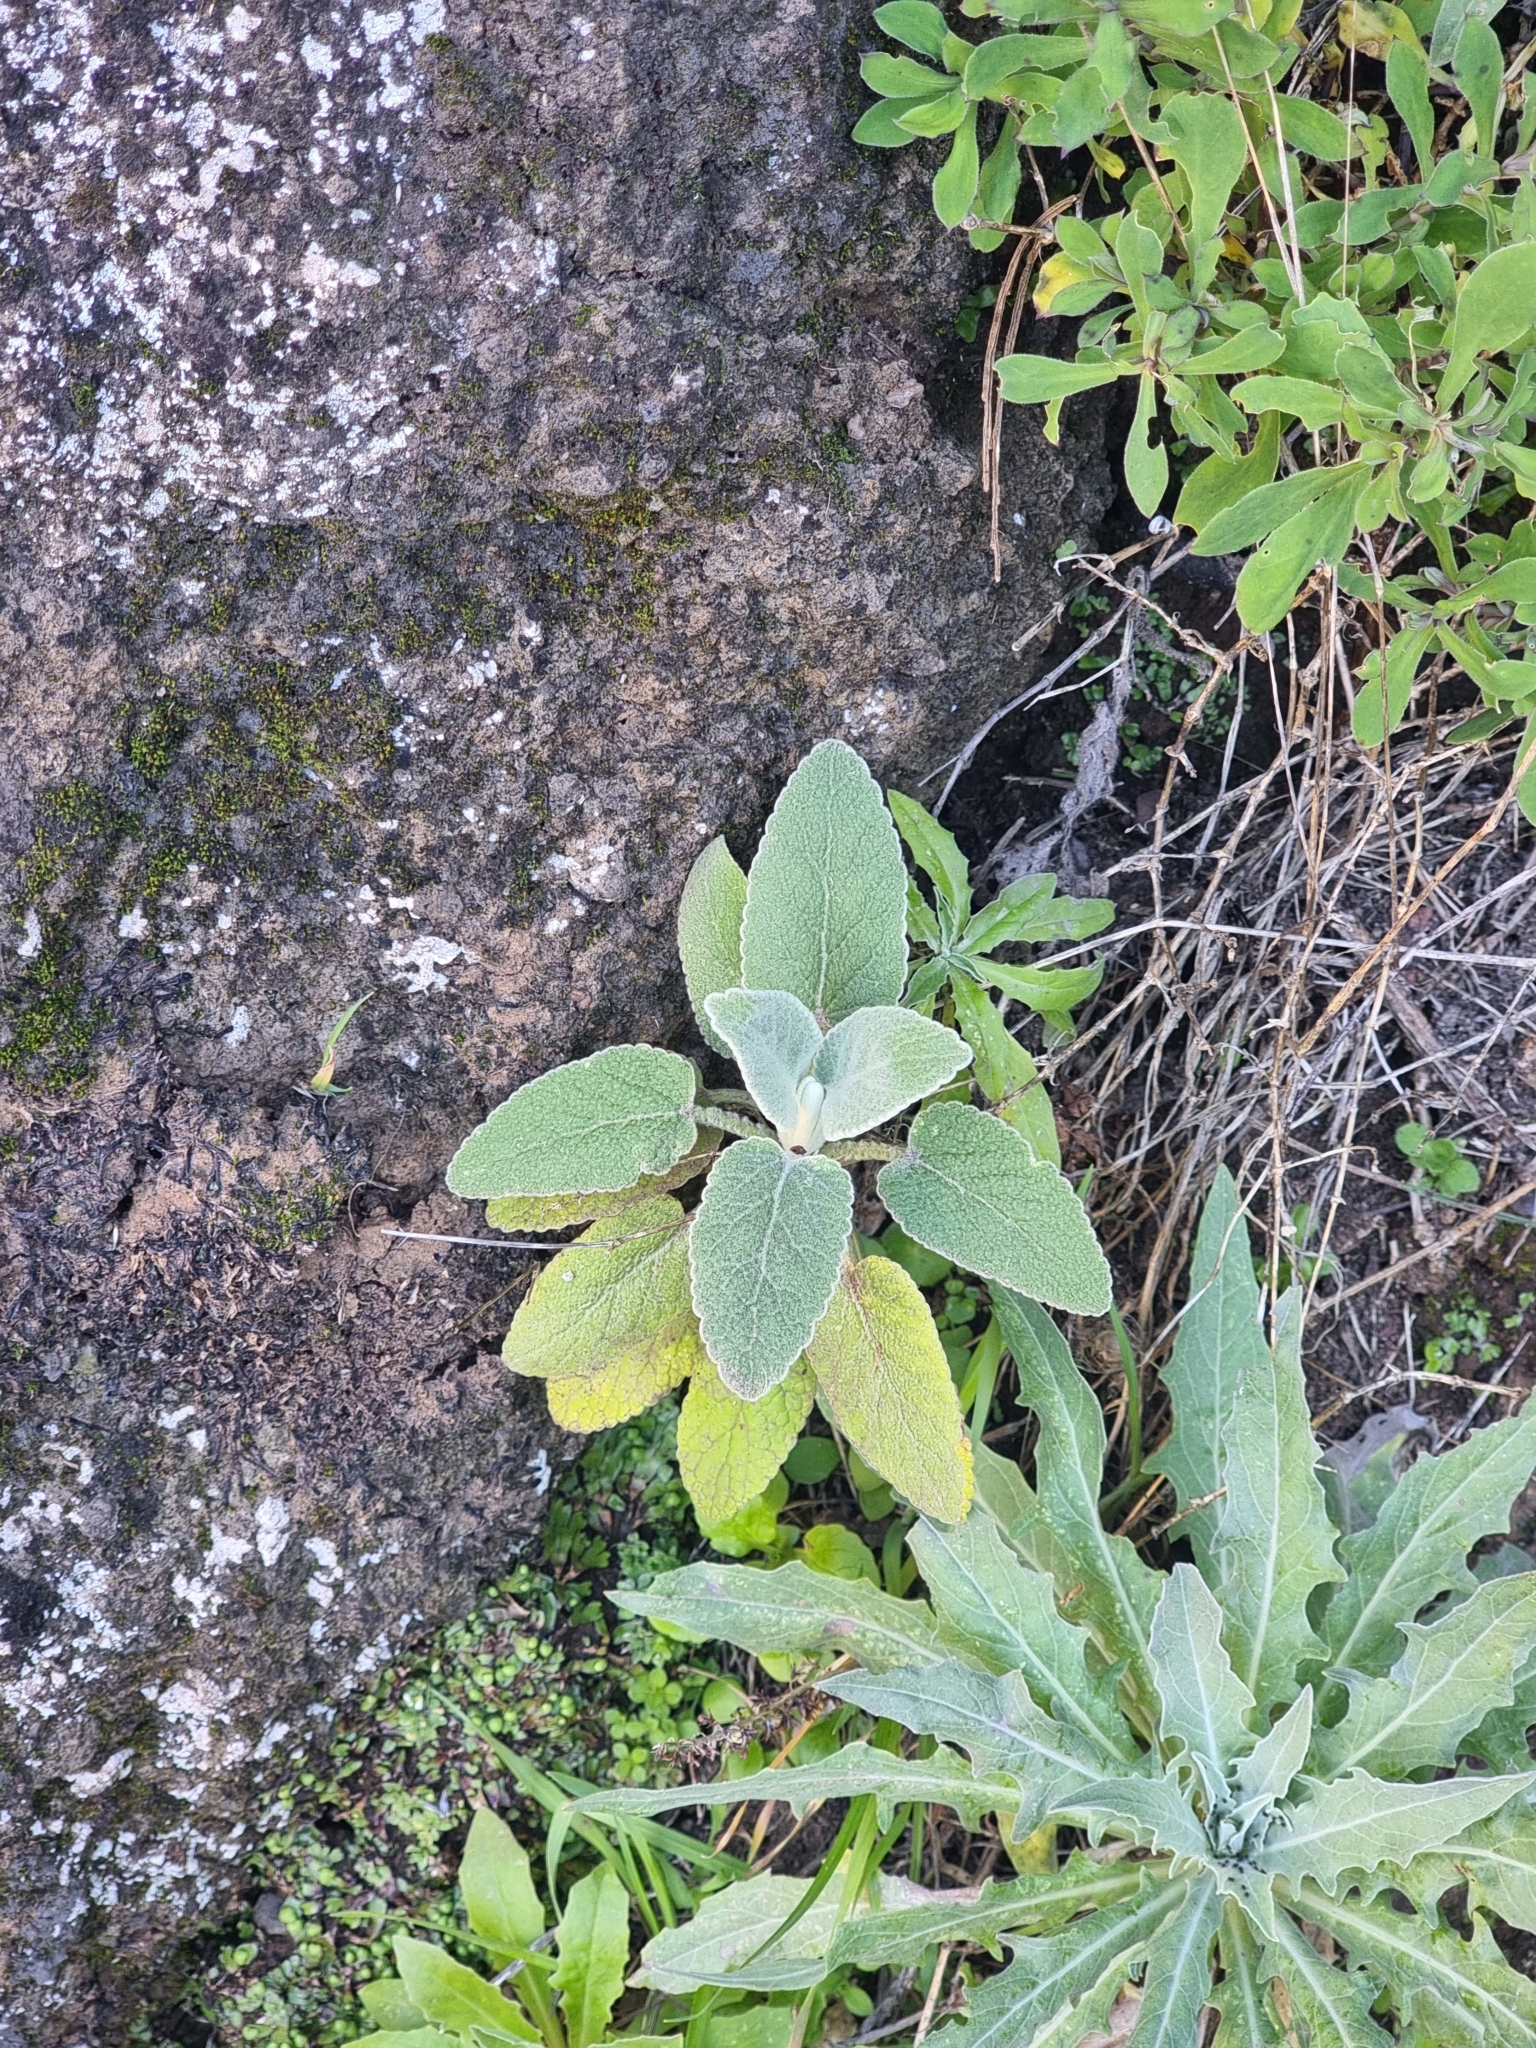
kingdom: Plantae
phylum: Tracheophyta
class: Magnoliopsida
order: Lamiales
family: Lamiaceae
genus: Sideritis
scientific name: Sideritis candicans
